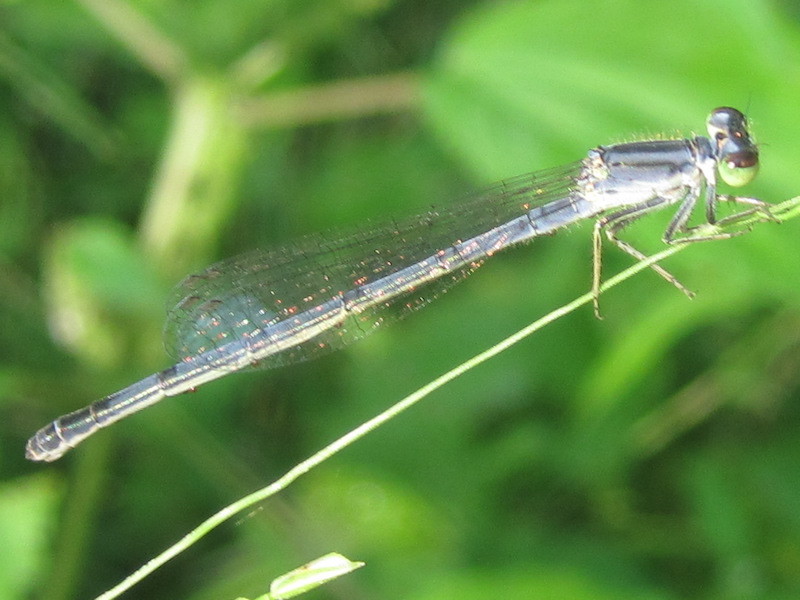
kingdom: Animalia
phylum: Arthropoda
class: Insecta
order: Odonata
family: Coenagrionidae
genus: Ischnura
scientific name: Ischnura verticalis
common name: Eastern forktail
